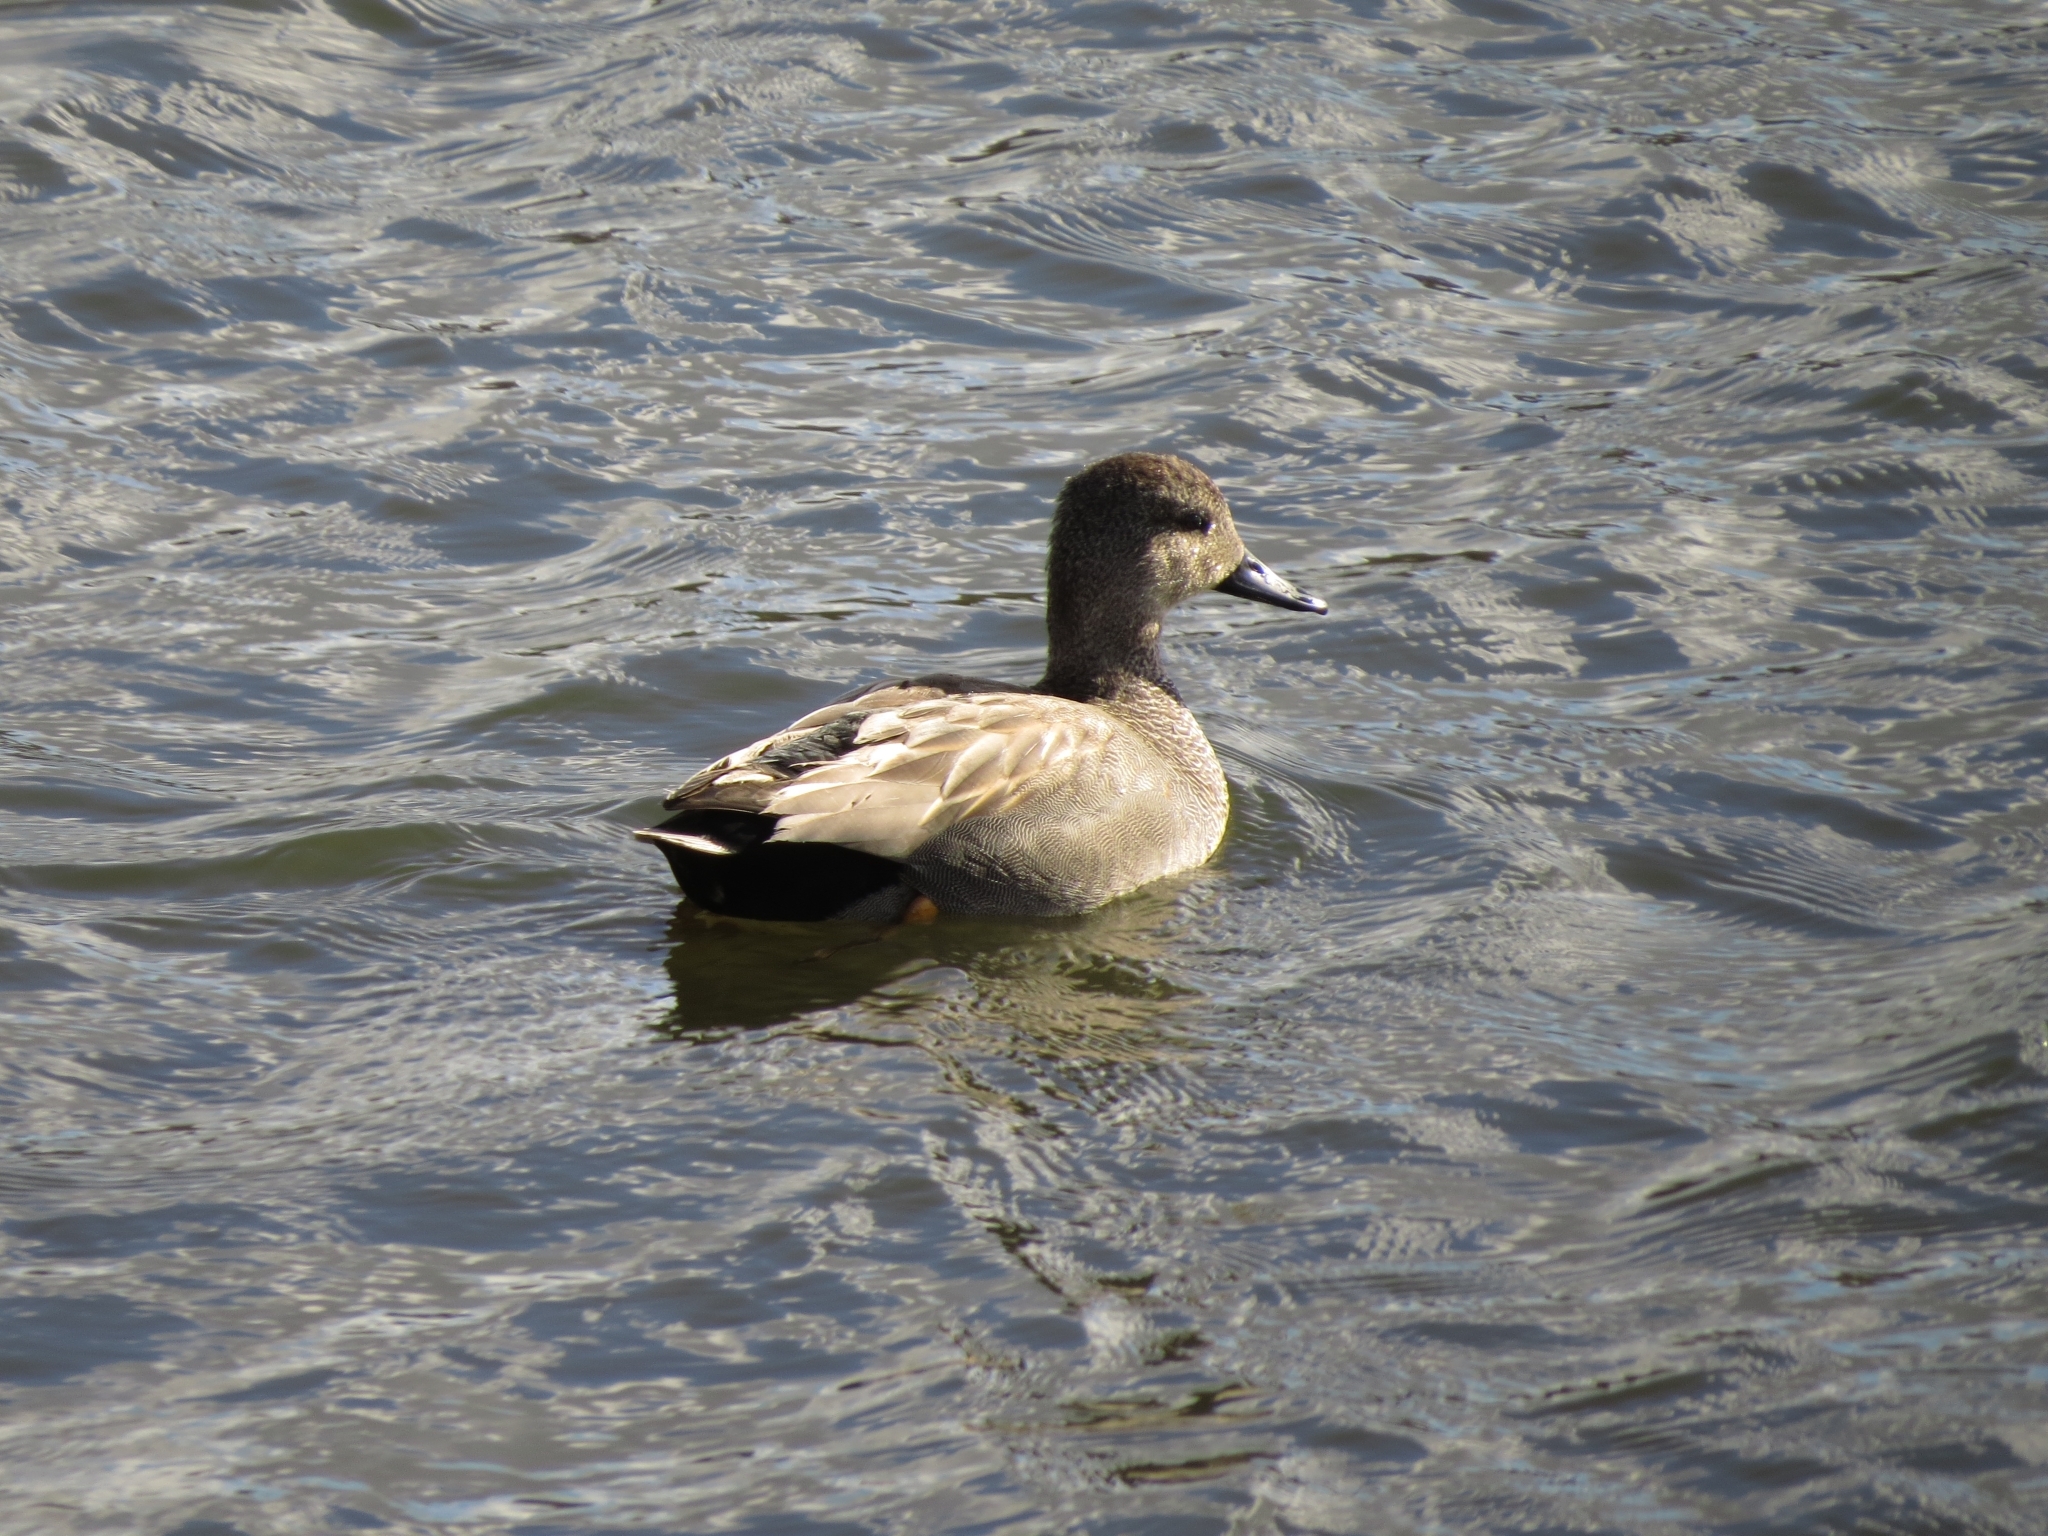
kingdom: Animalia
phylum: Chordata
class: Aves
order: Anseriformes
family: Anatidae
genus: Mareca
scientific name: Mareca strepera
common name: Gadwall
